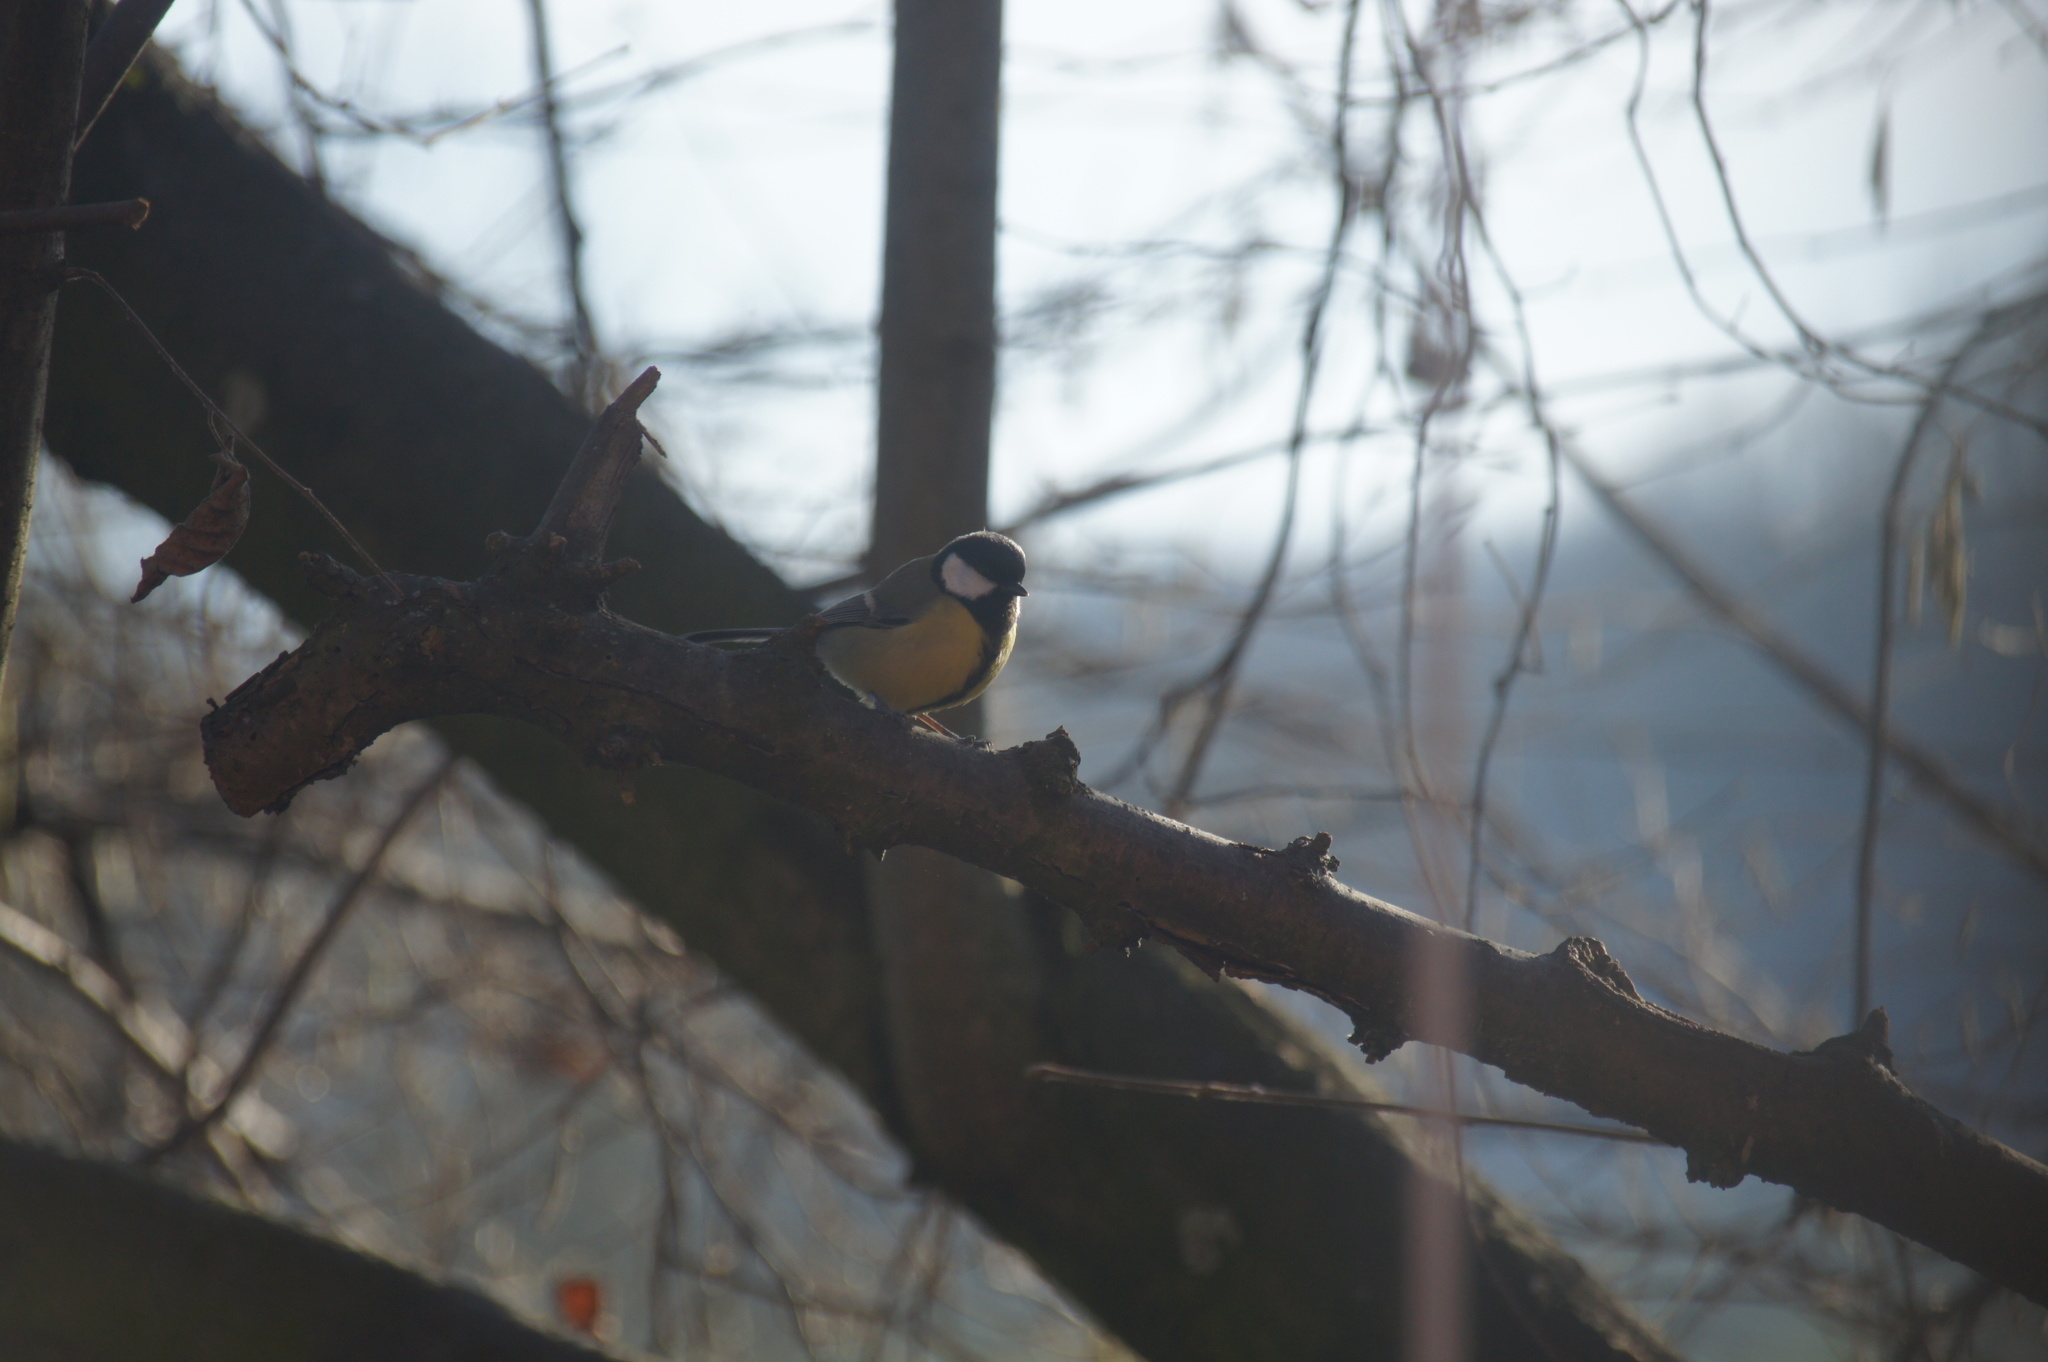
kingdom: Animalia
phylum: Chordata
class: Aves
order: Passeriformes
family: Paridae
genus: Parus
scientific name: Parus major
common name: Great tit
